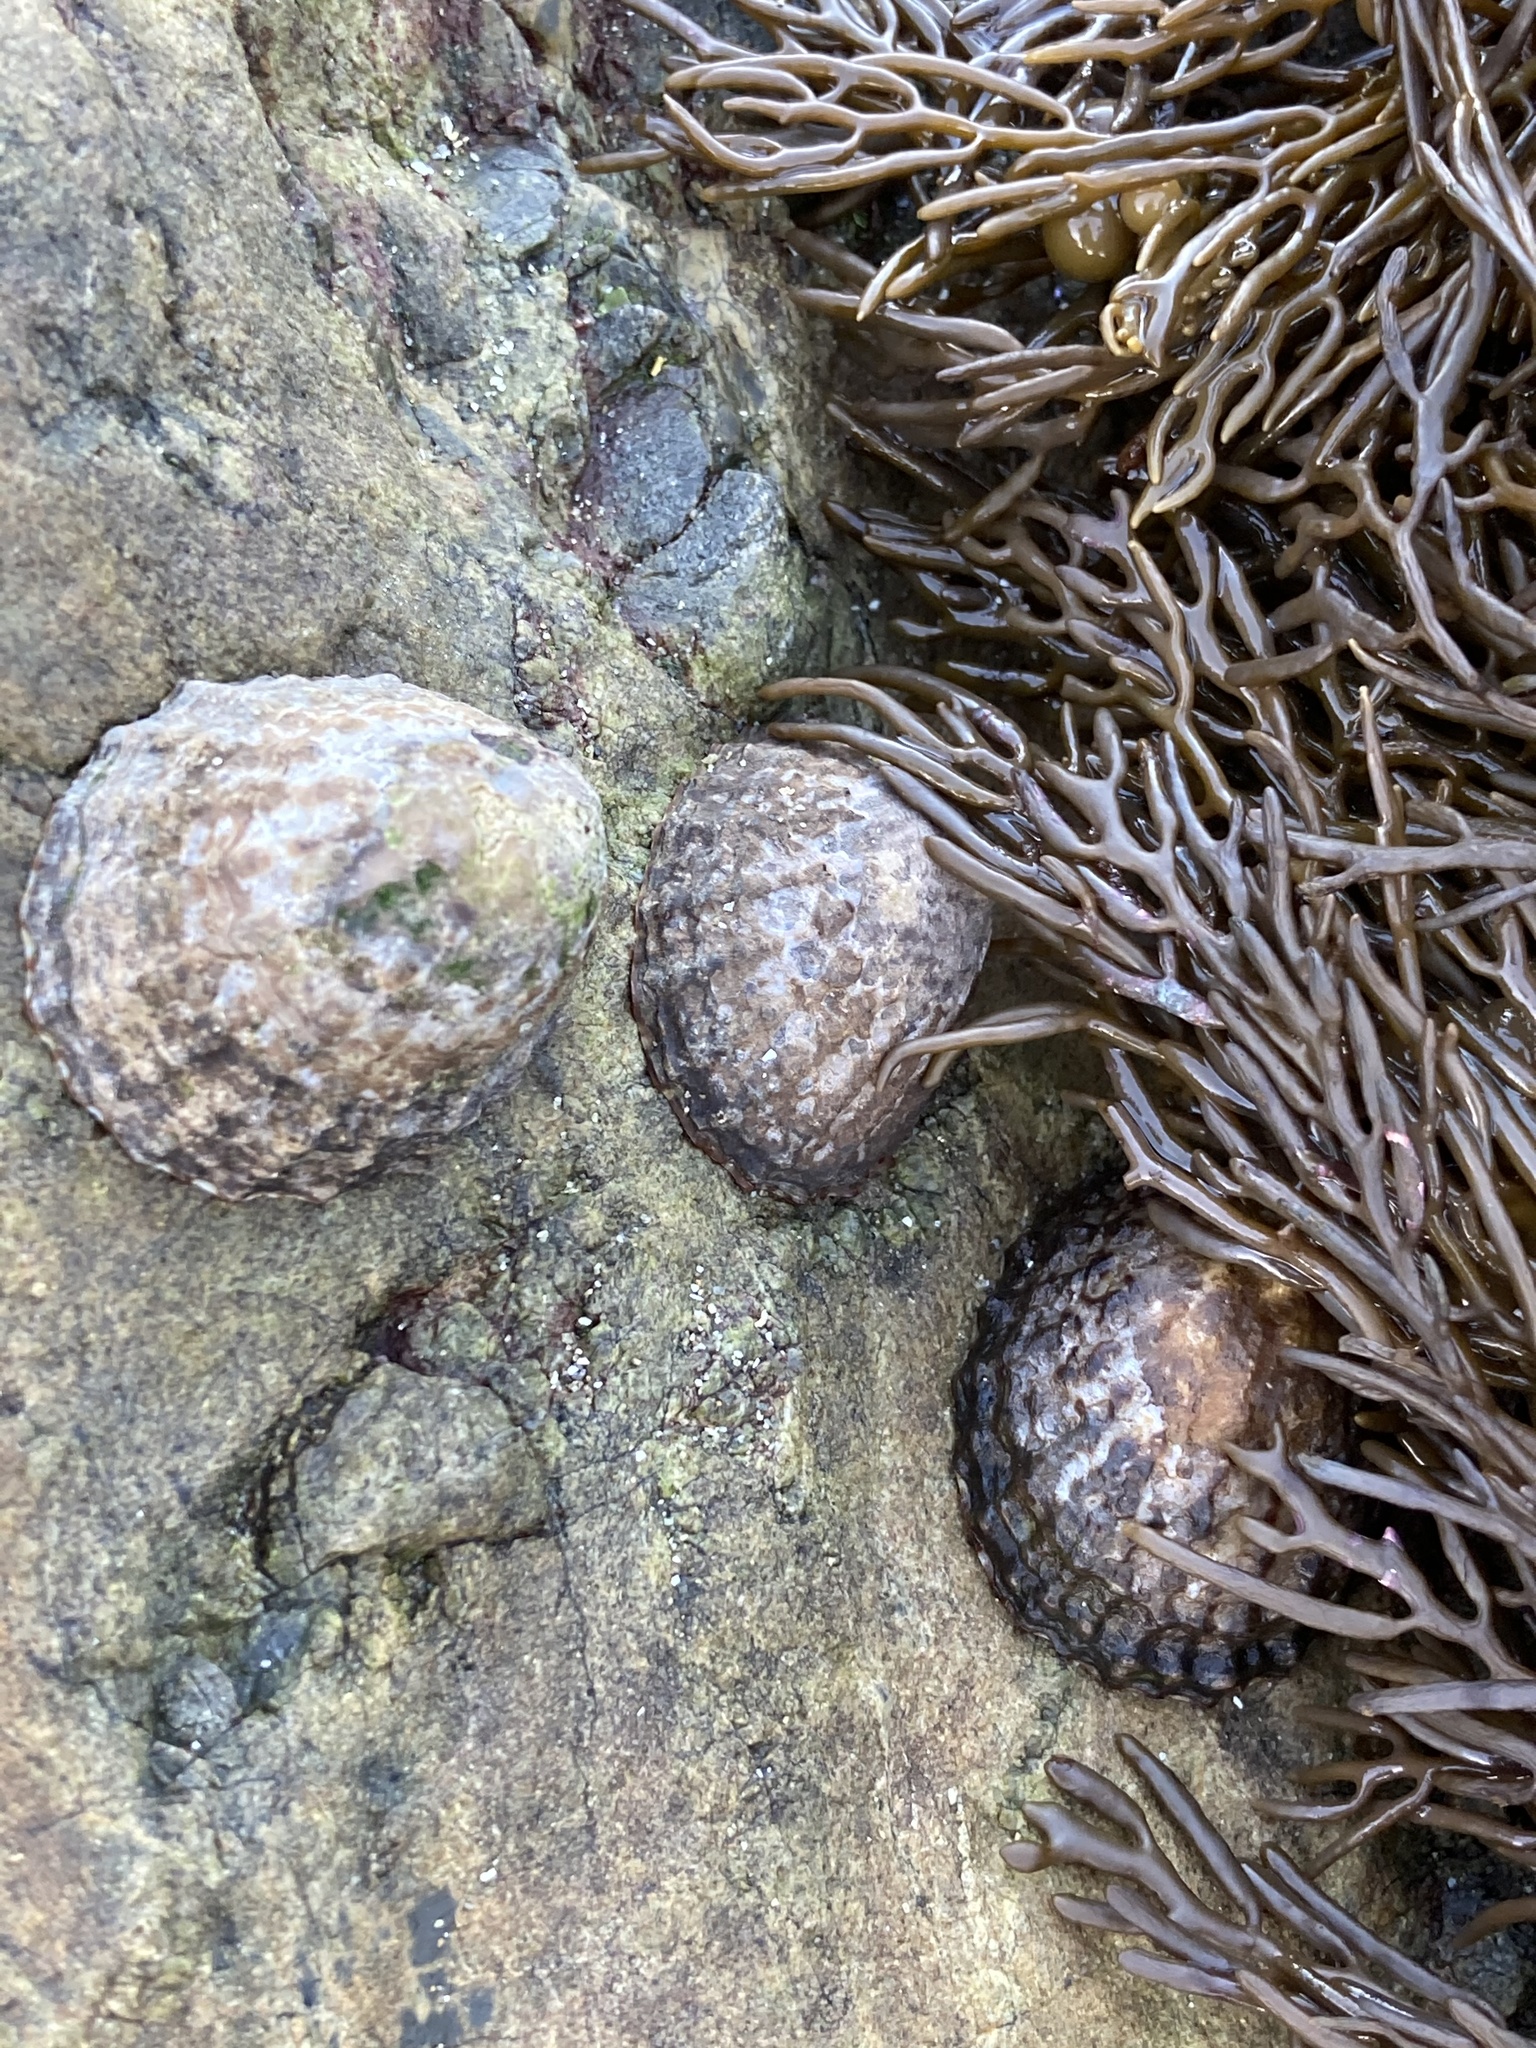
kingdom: Animalia
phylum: Mollusca
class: Gastropoda
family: Nacellidae
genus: Cellana
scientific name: Cellana denticulata
